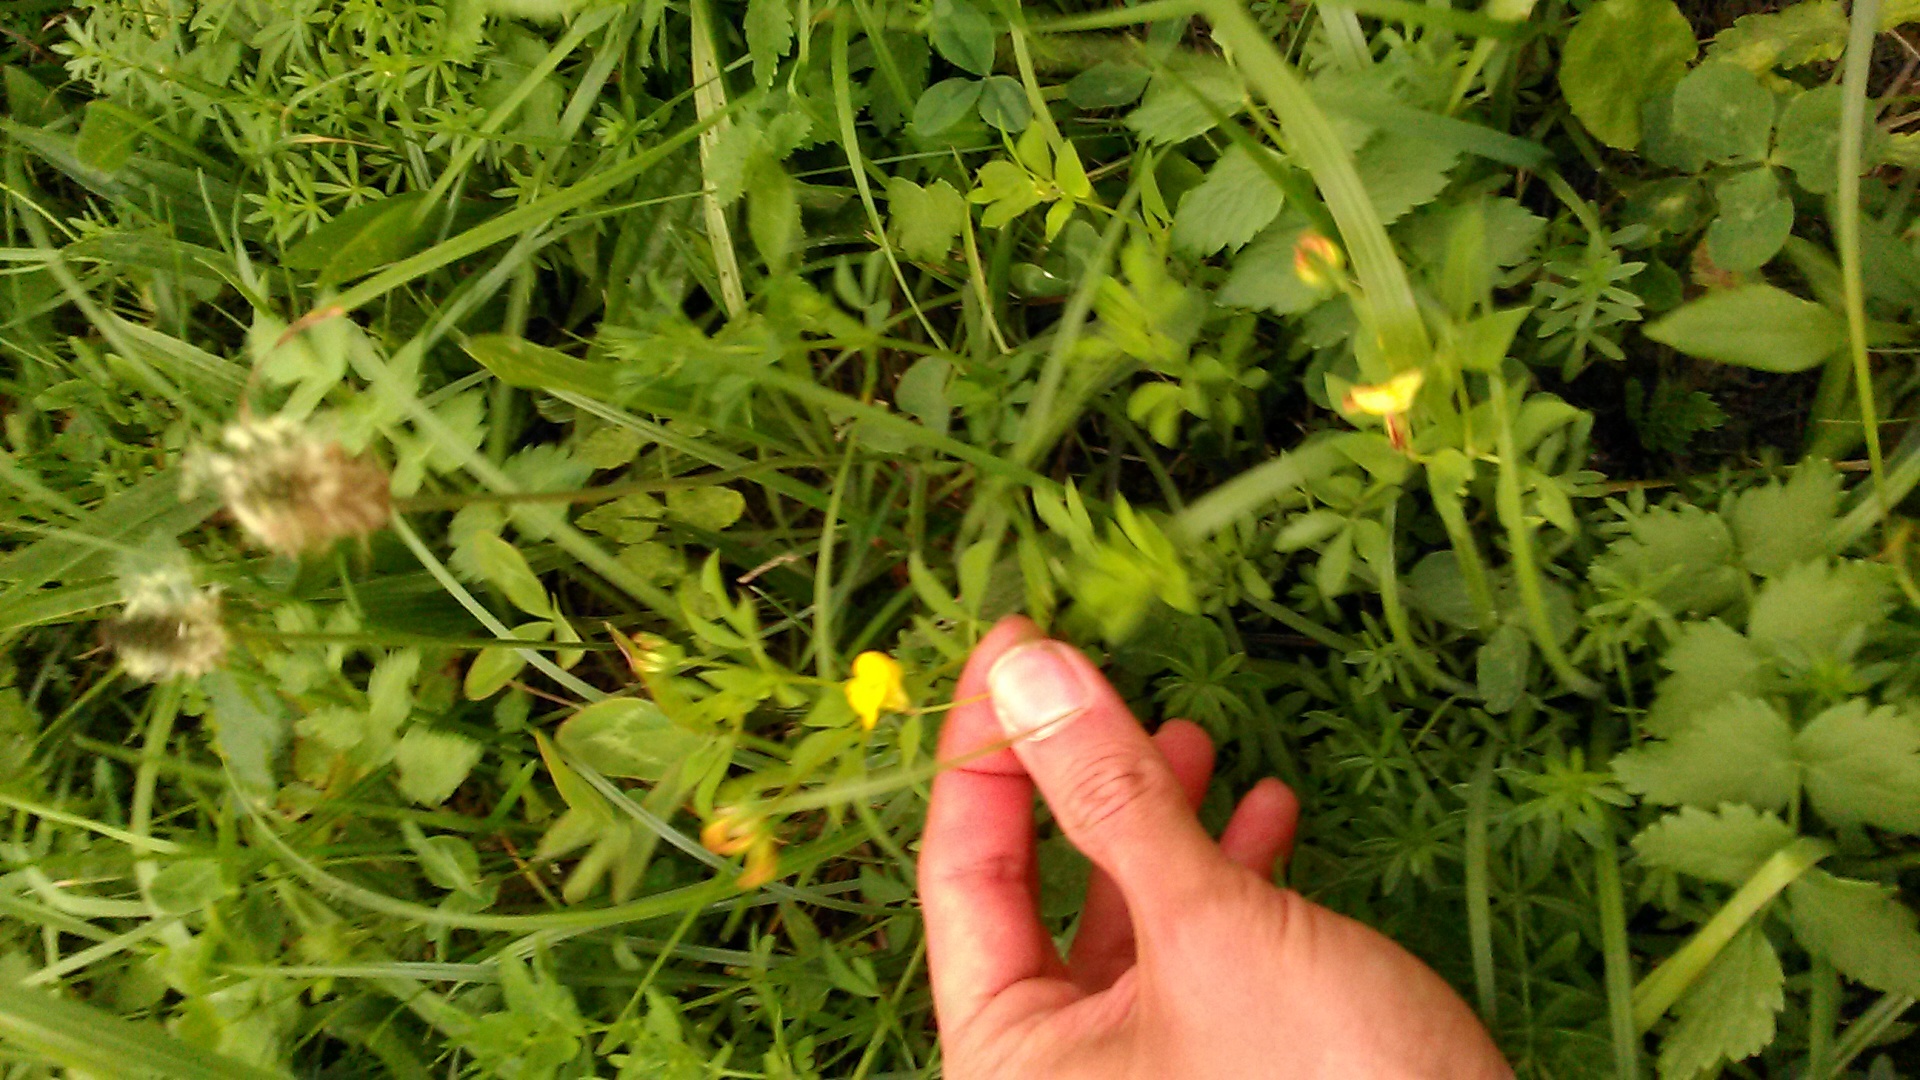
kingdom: Plantae
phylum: Tracheophyta
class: Magnoliopsida
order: Fabales
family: Fabaceae
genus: Lotus
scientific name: Lotus corniculatus
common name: Common bird's-foot-trefoil
